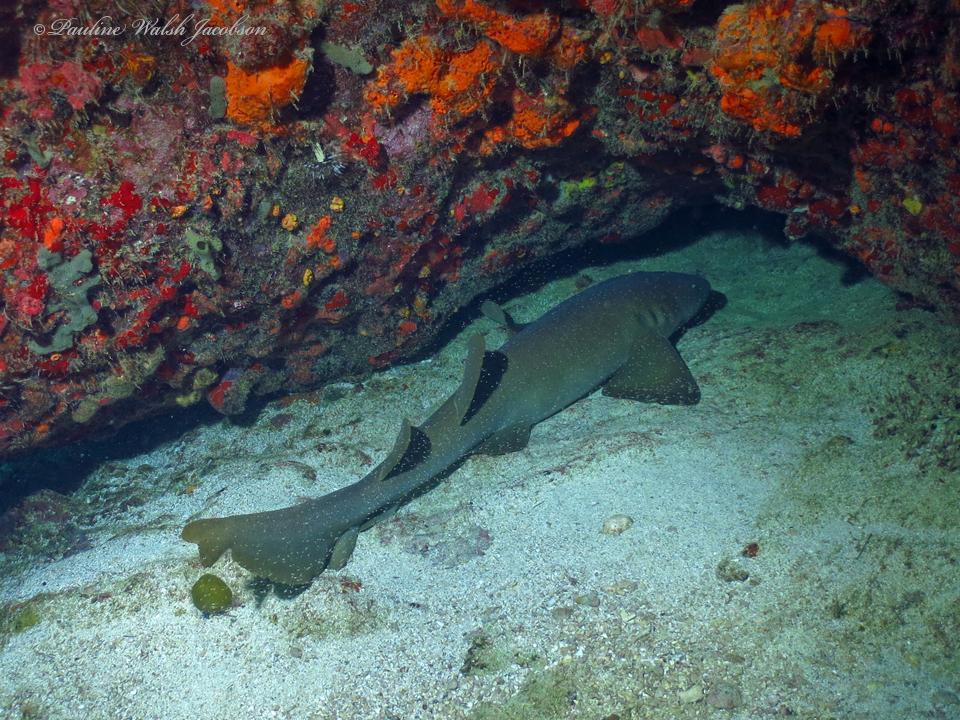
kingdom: Animalia
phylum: Chordata
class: Elasmobranchii
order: Orectolobiformes
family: Ginglymostomatidae
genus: Ginglymostoma
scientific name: Ginglymostoma cirratum
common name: Nurse shark
